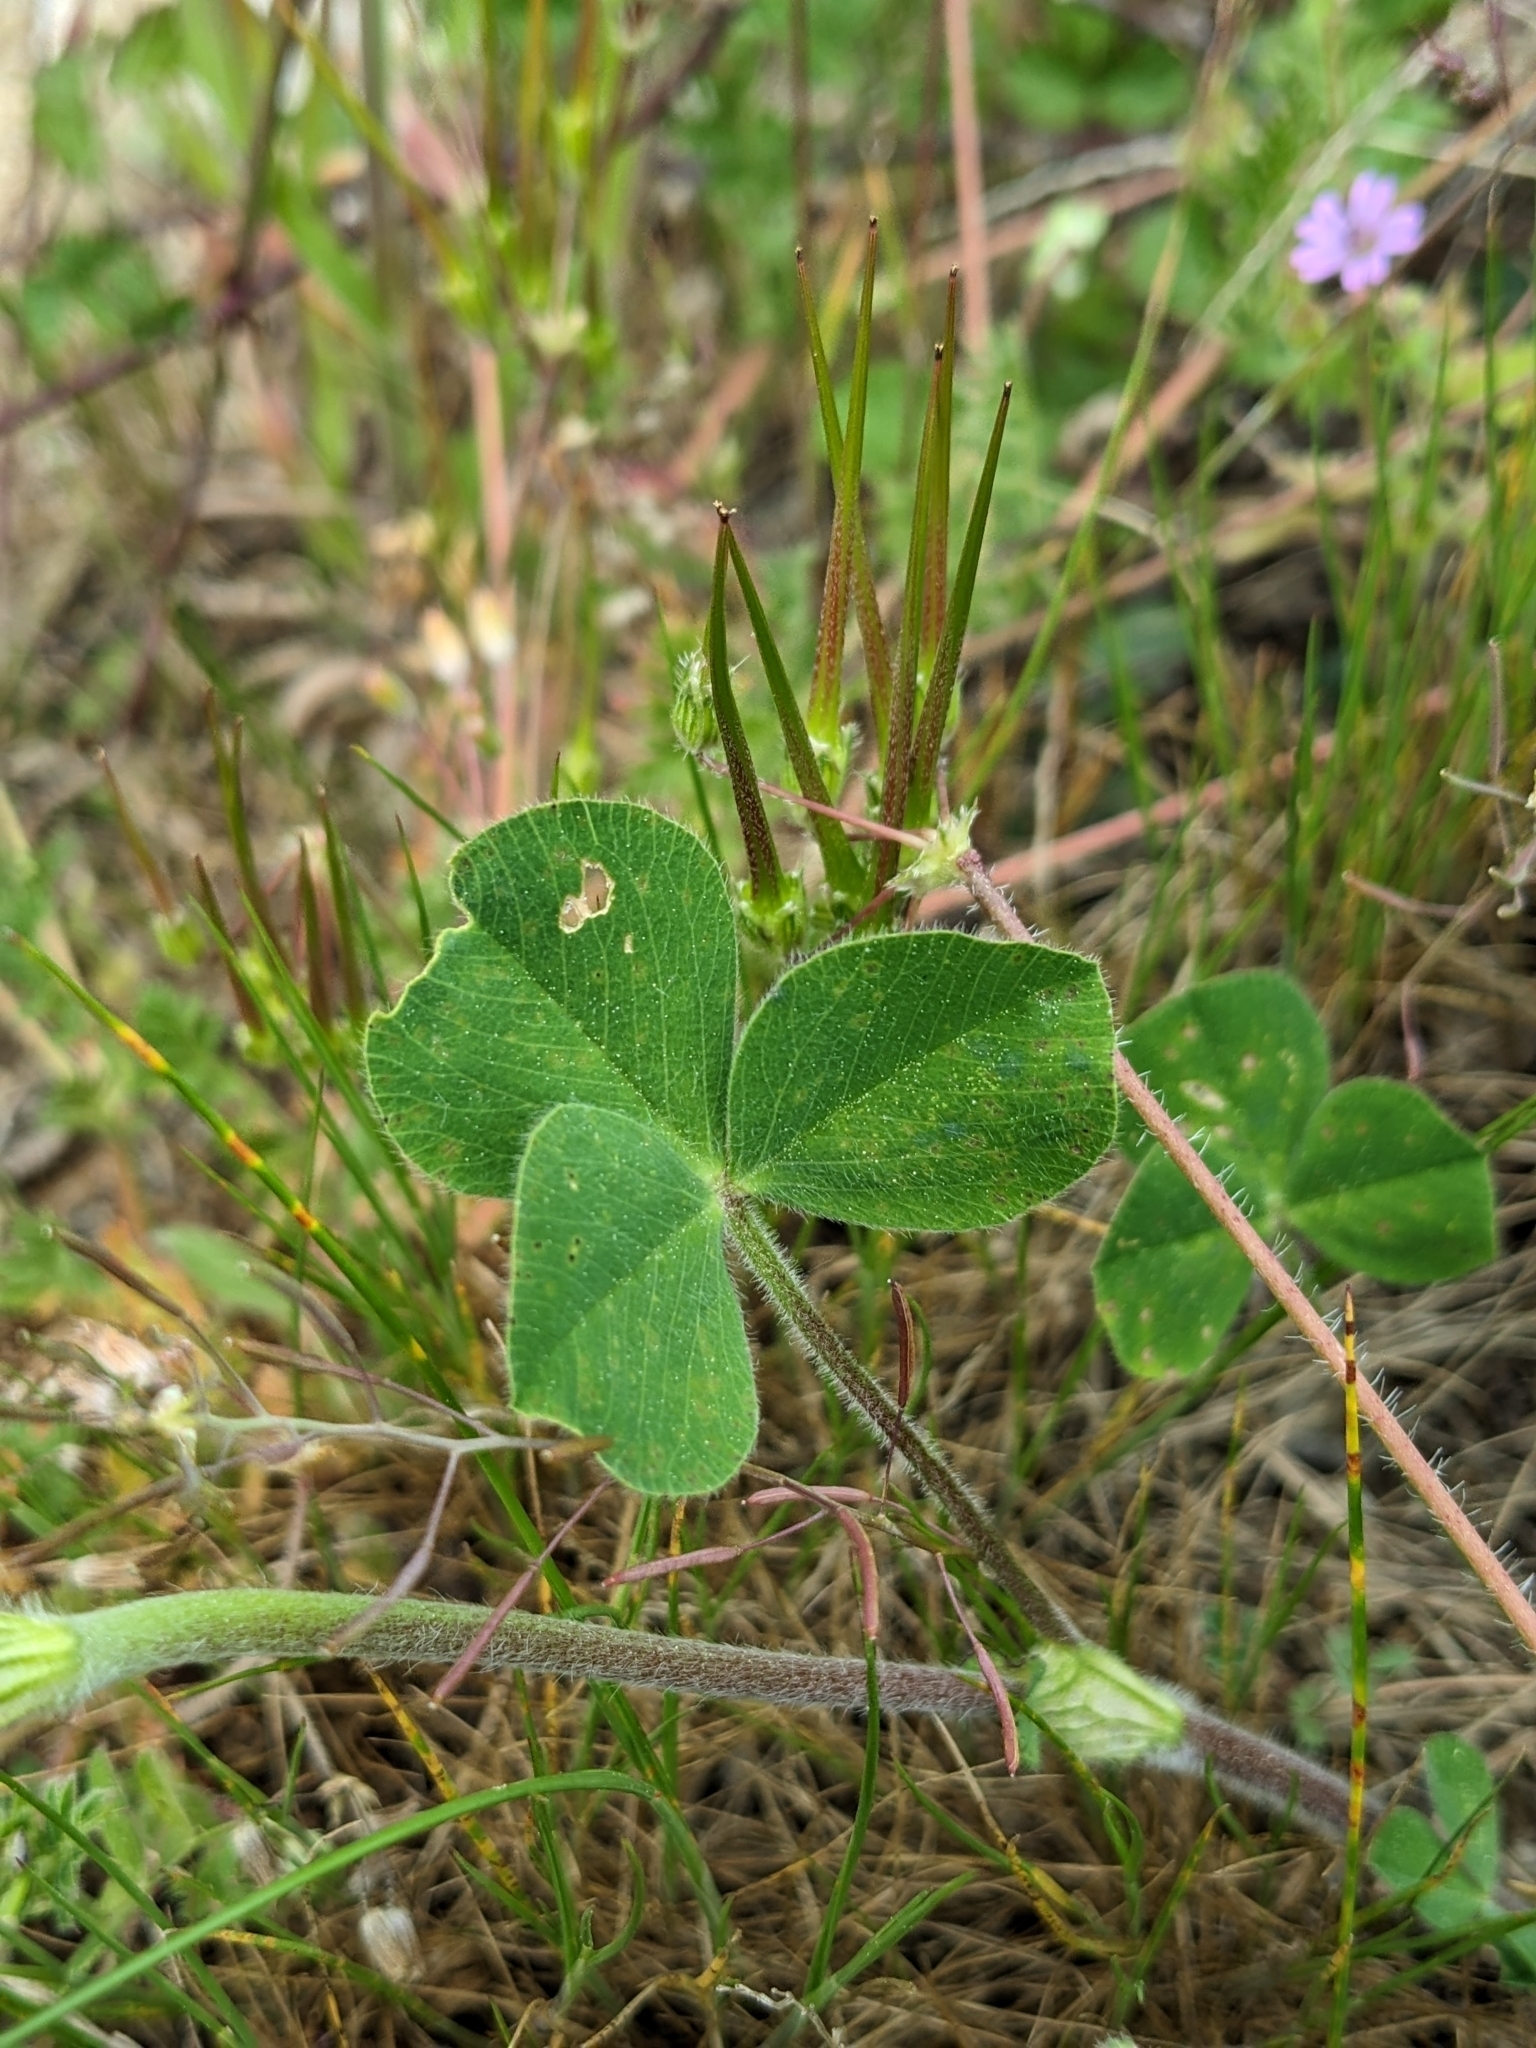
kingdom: Plantae
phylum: Tracheophyta
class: Magnoliopsida
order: Fabales
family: Fabaceae
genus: Trifolium
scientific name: Trifolium incarnatum
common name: Crimson clover
